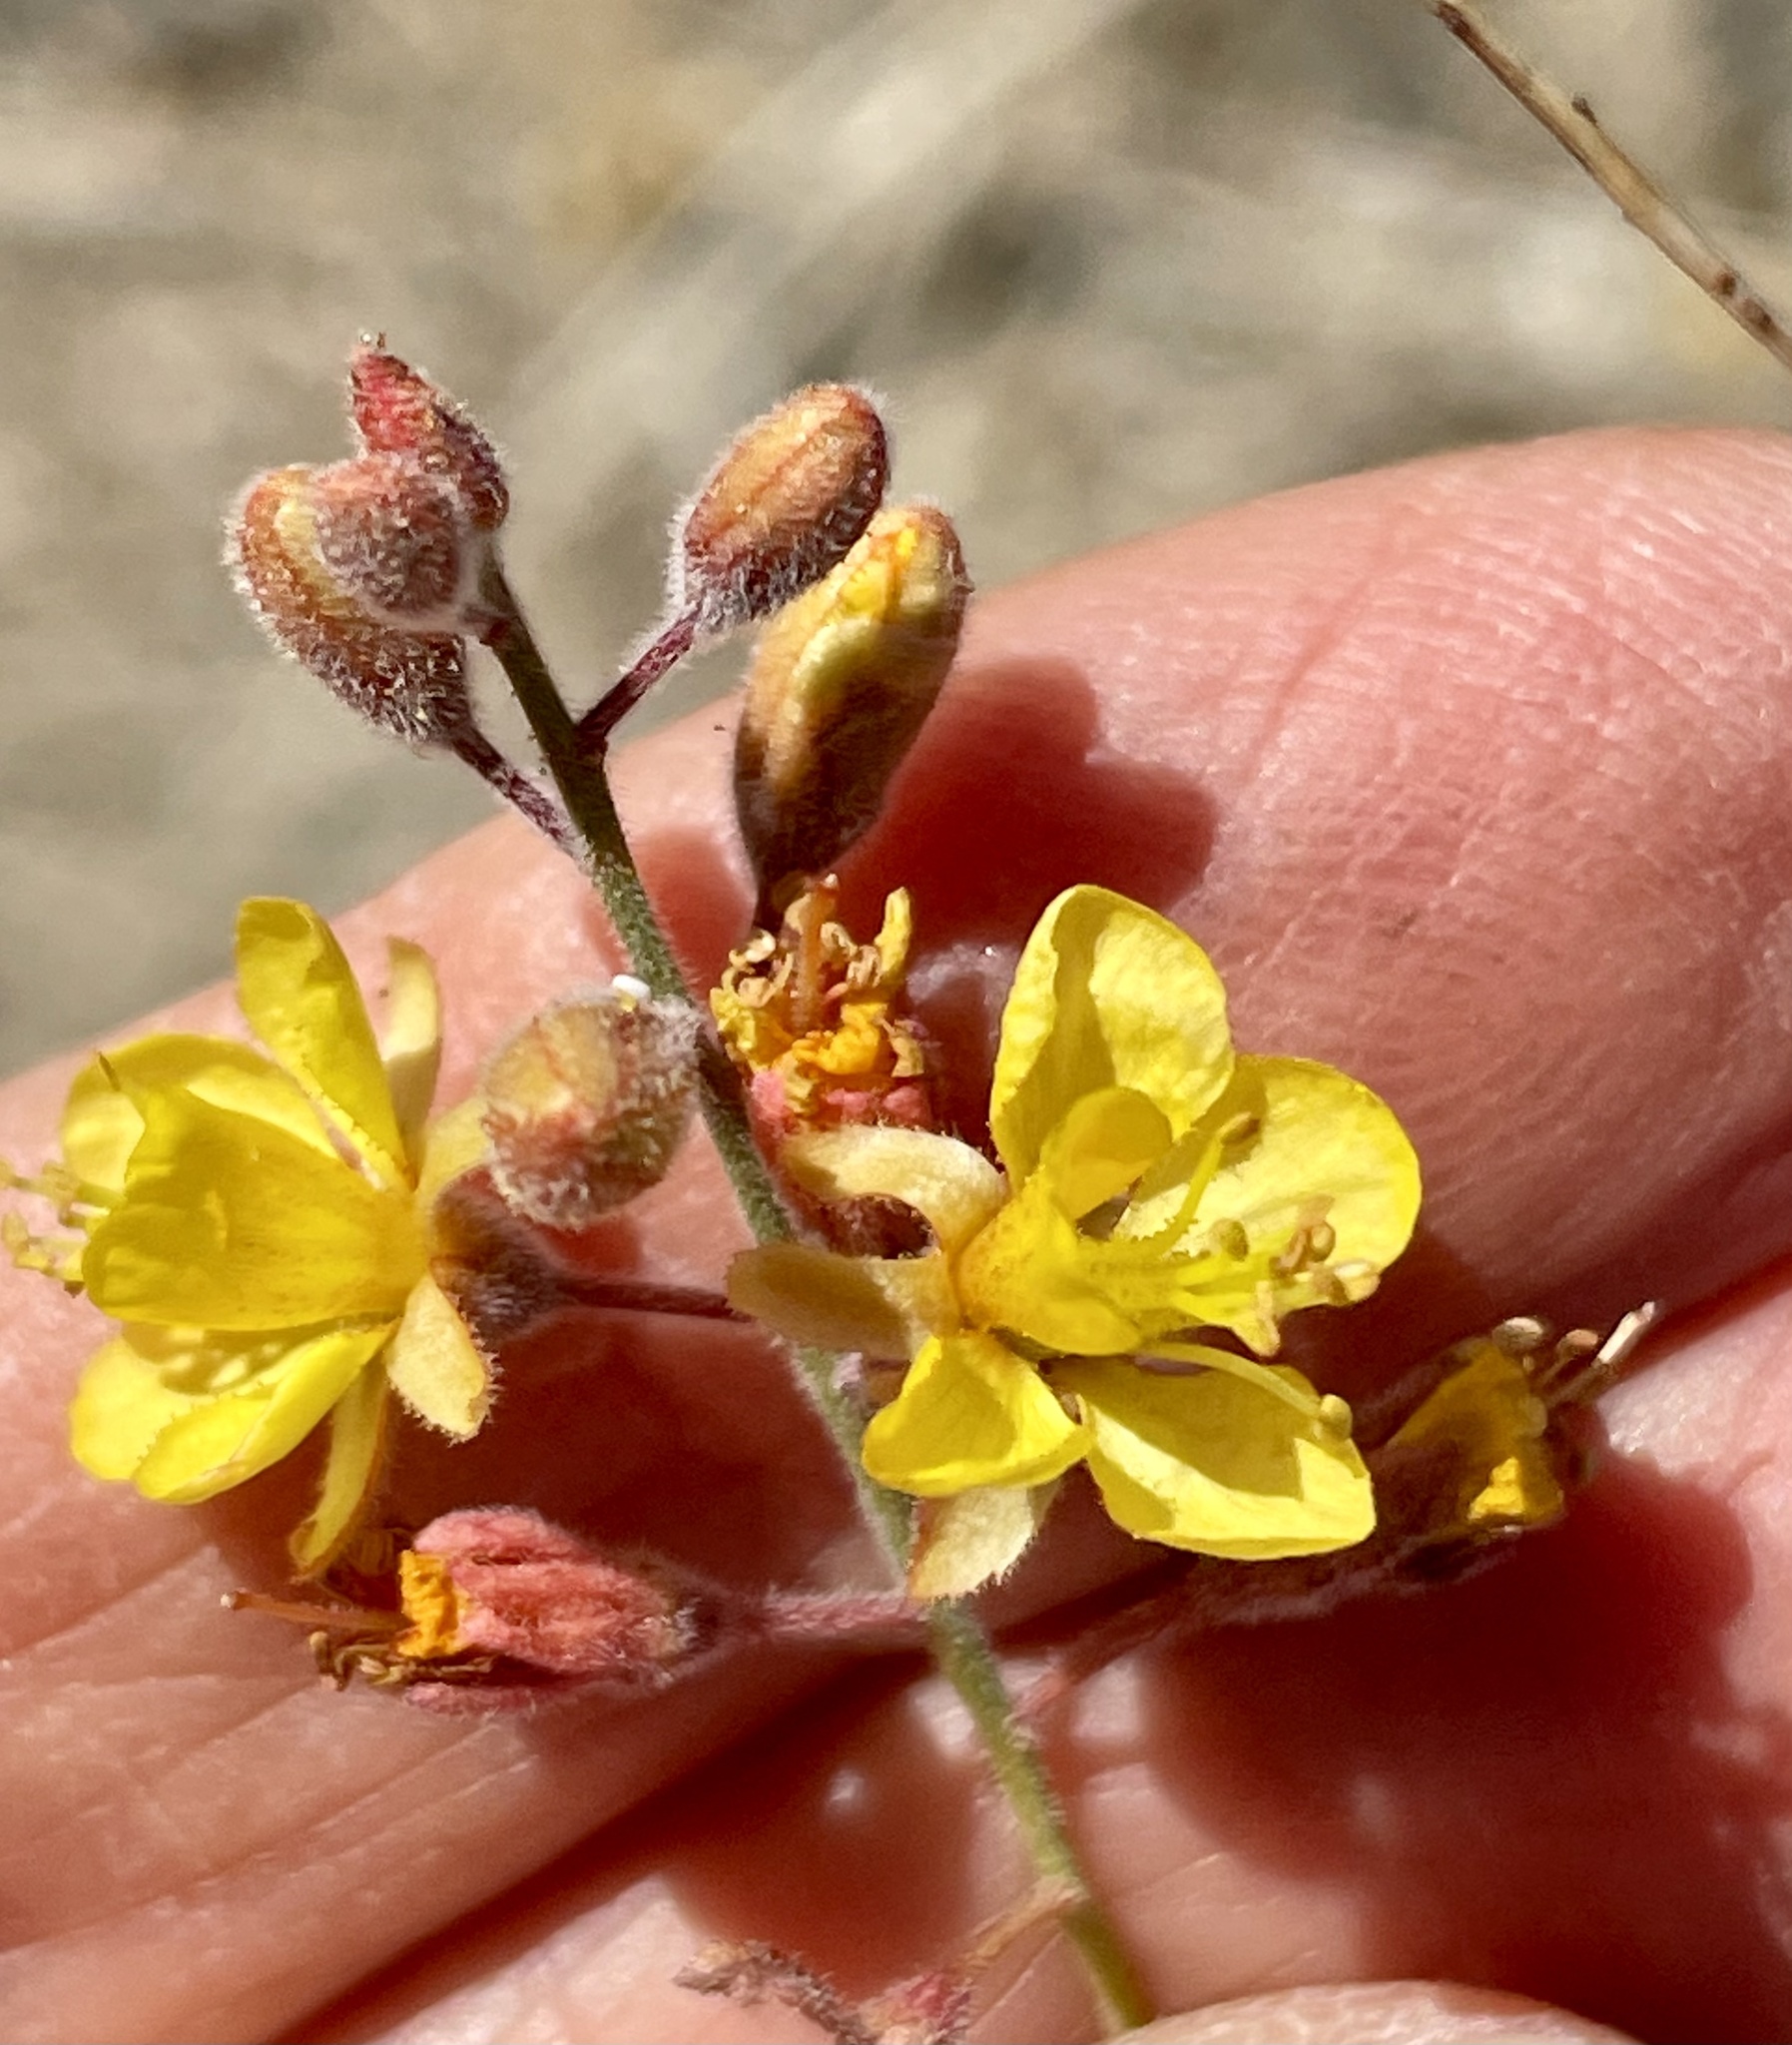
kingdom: Plantae
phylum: Tracheophyta
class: Magnoliopsida
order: Fabales
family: Fabaceae
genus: Hoffmannseggia
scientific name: Hoffmannseggia microphylla
